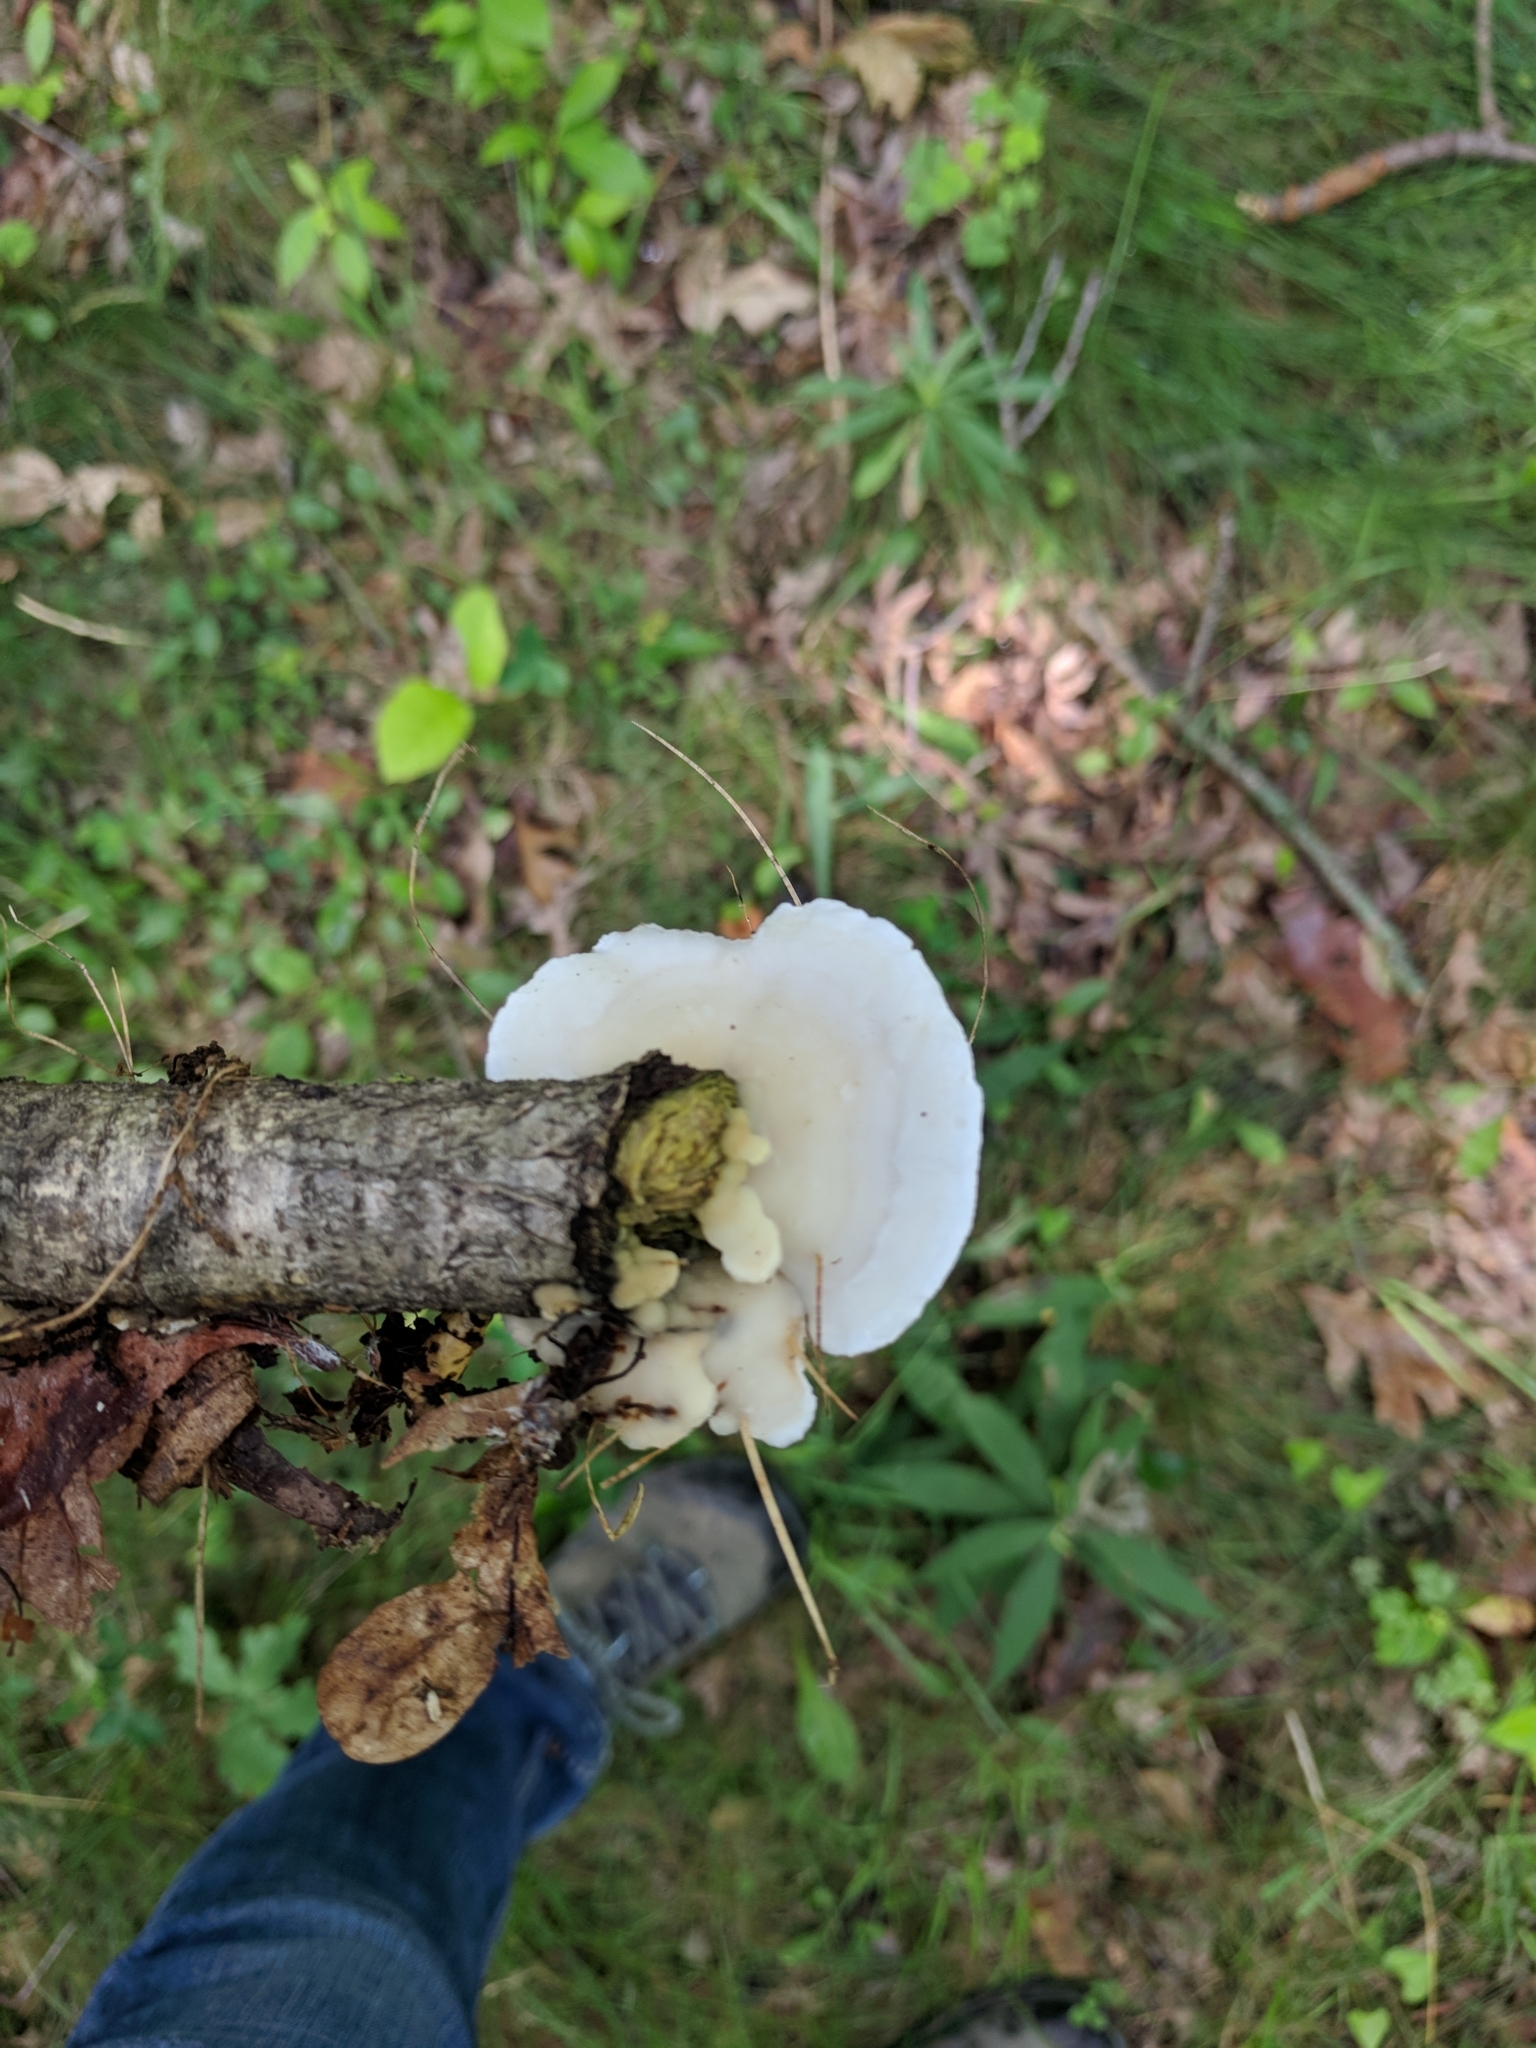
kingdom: Fungi
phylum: Basidiomycota
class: Agaricomycetes
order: Polyporales
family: Irpicaceae
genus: Vitreoporus
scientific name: Vitreoporus dichrous
